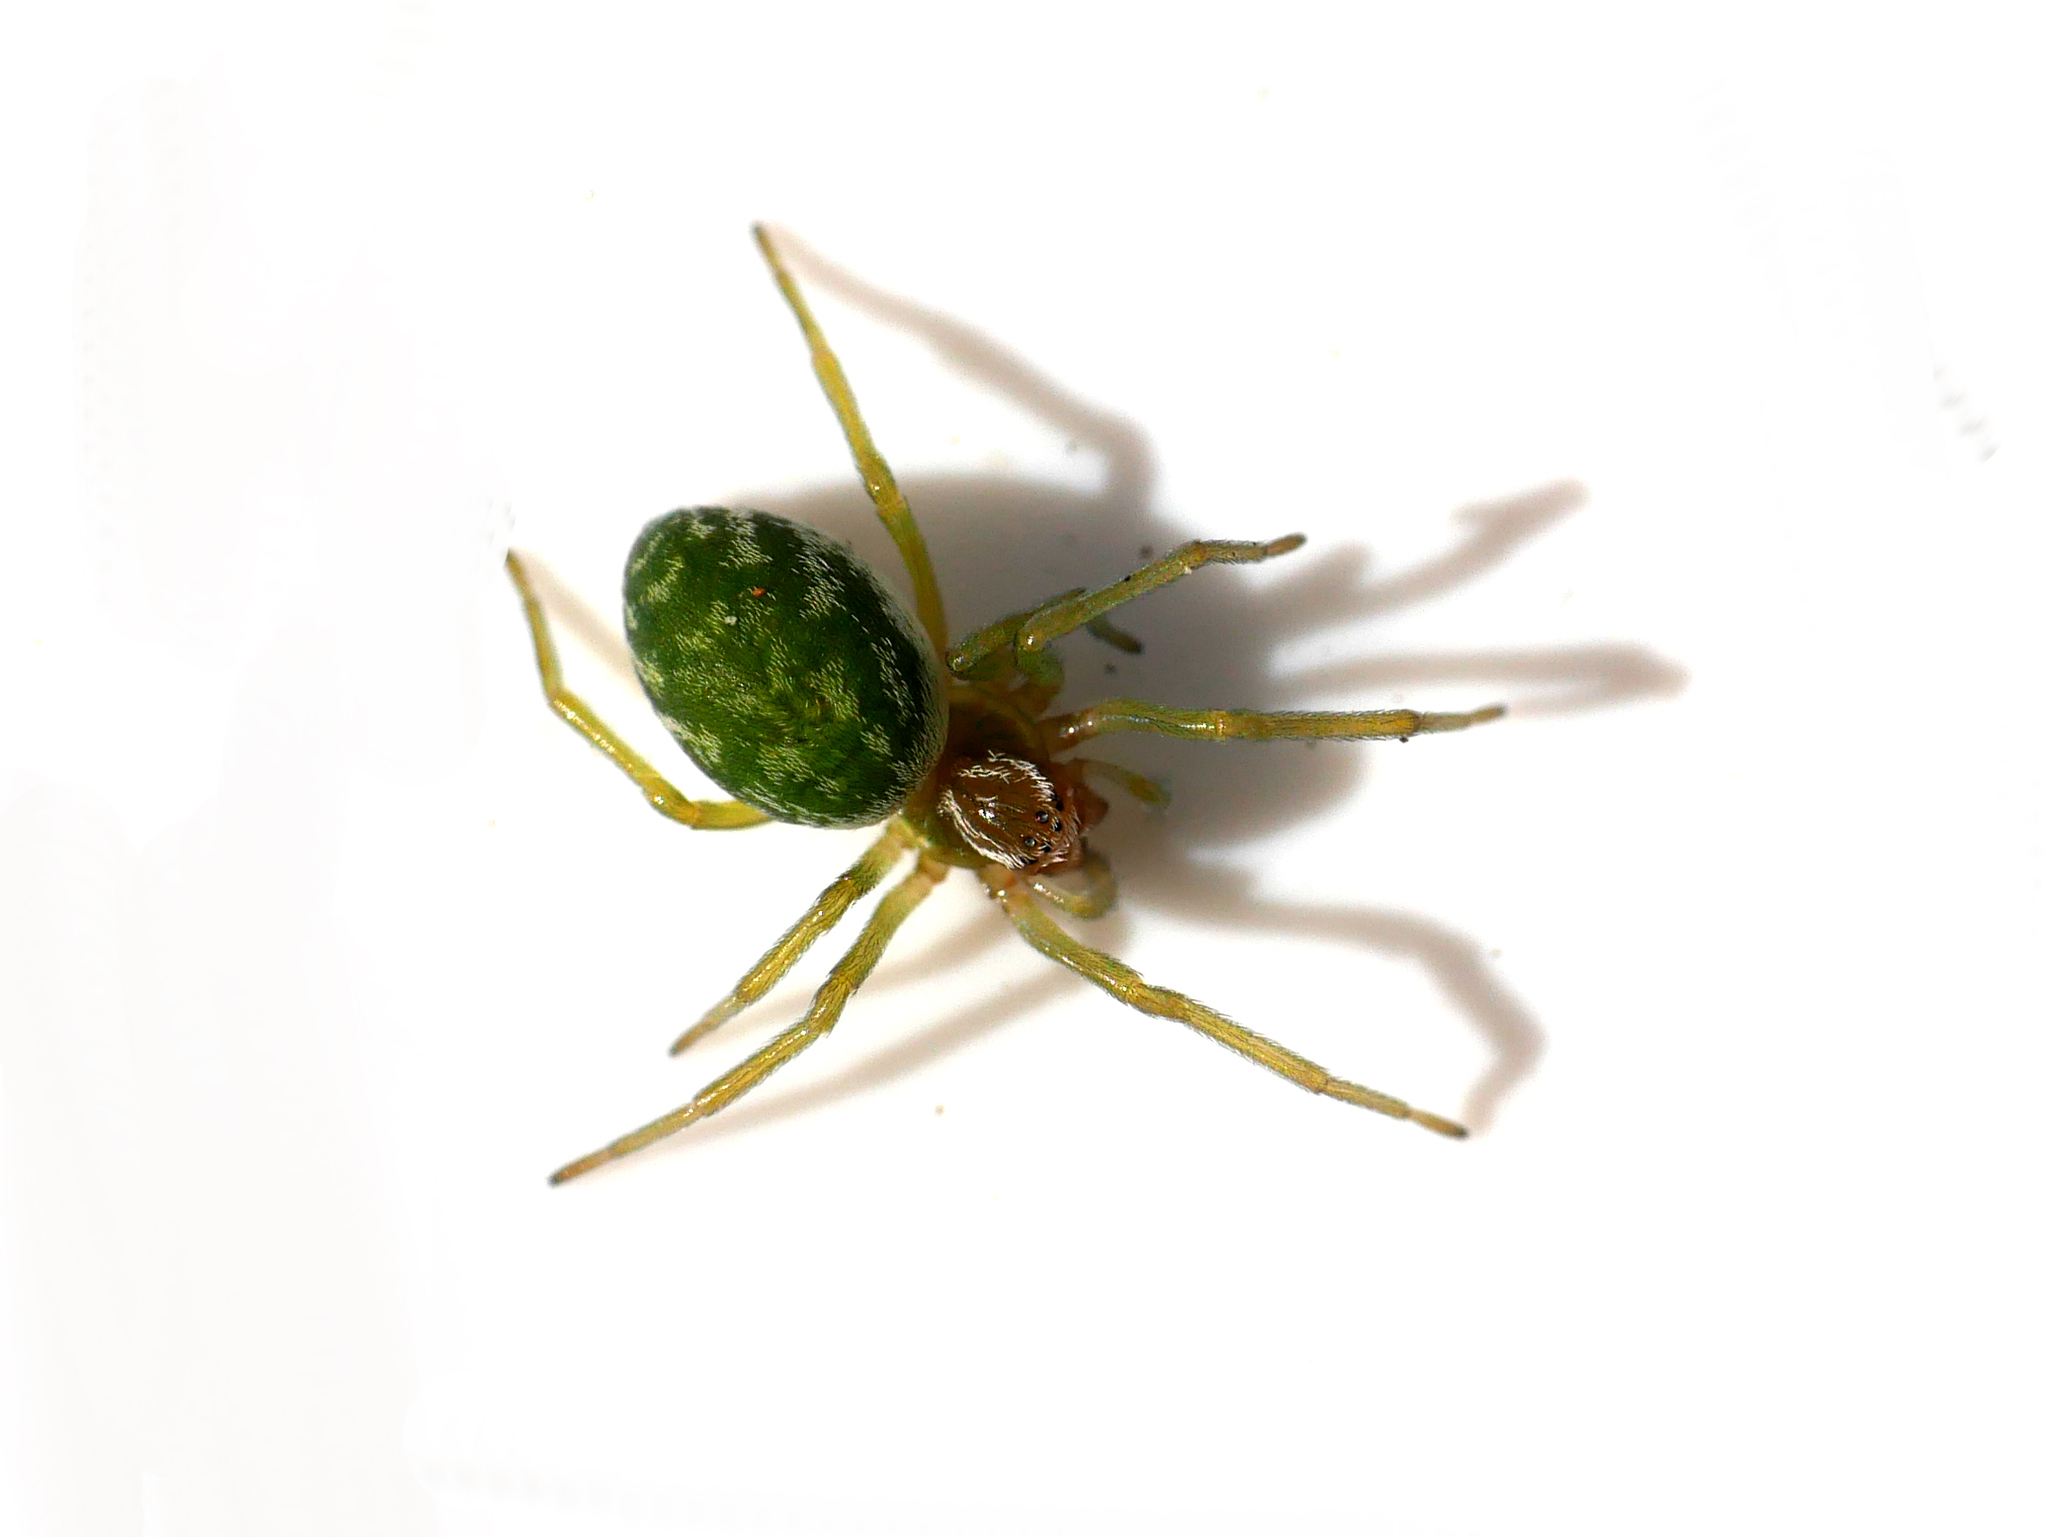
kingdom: Animalia
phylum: Arthropoda
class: Arachnida
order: Araneae
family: Dictynidae
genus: Nigma
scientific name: Nigma walckenaeri
